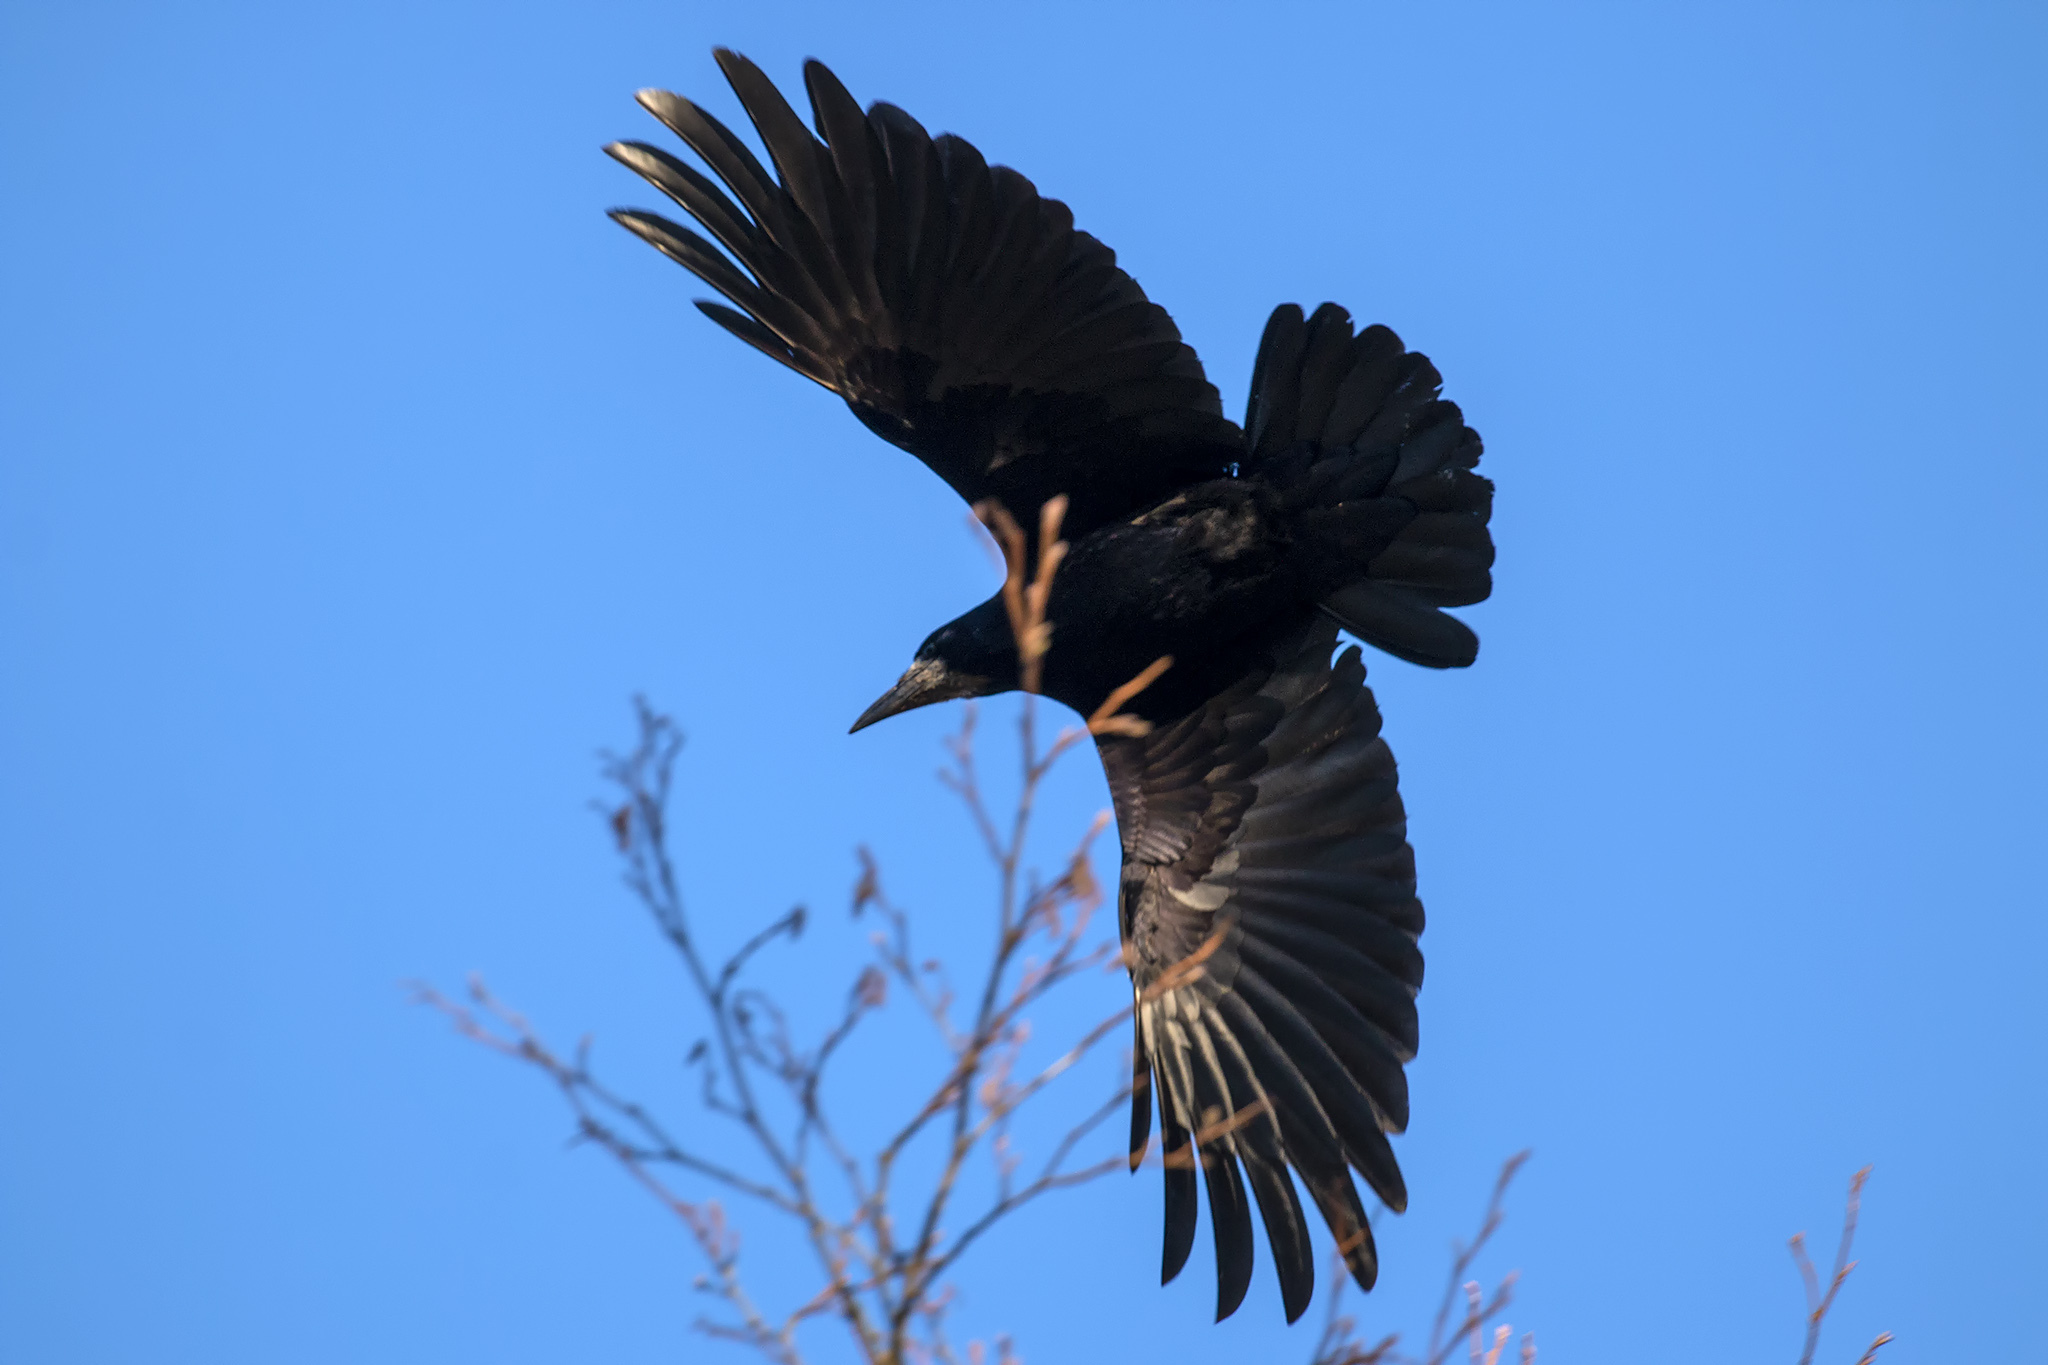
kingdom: Animalia
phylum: Chordata
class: Aves
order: Passeriformes
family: Corvidae
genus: Corvus
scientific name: Corvus frugilegus
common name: Rook
